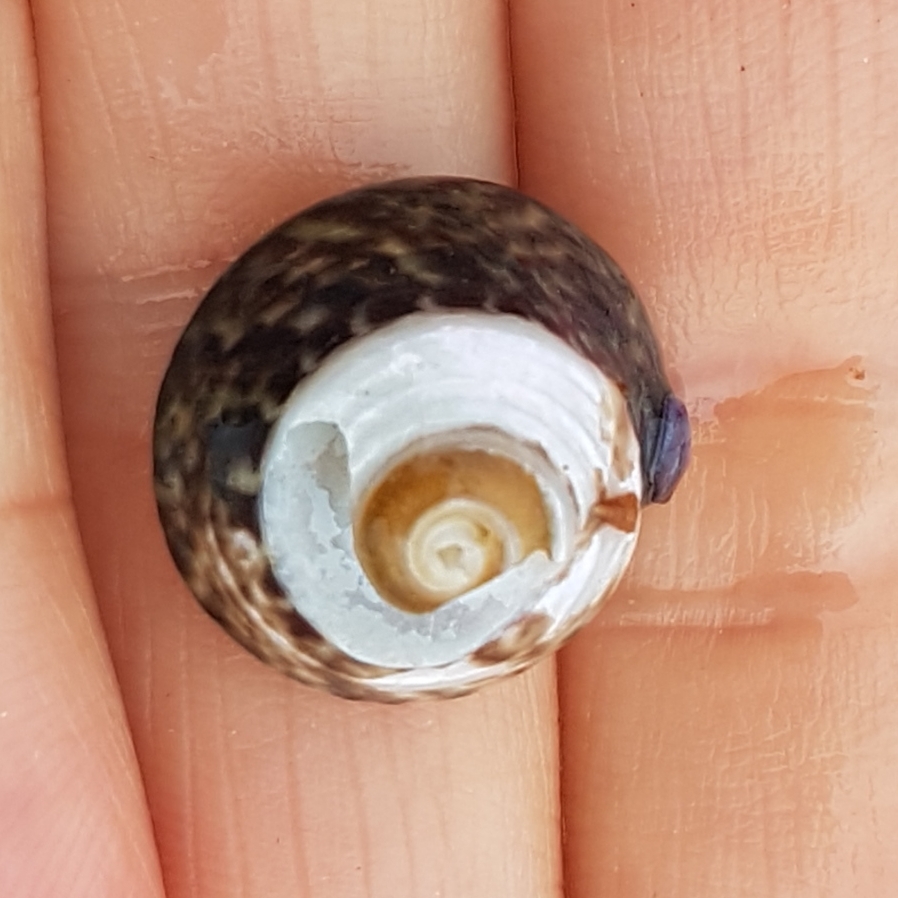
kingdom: Animalia
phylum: Mollusca
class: Gastropoda
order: Trochida
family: Trochidae
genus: Steromphala
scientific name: Steromphala umbilicalis
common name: Flat top shell
